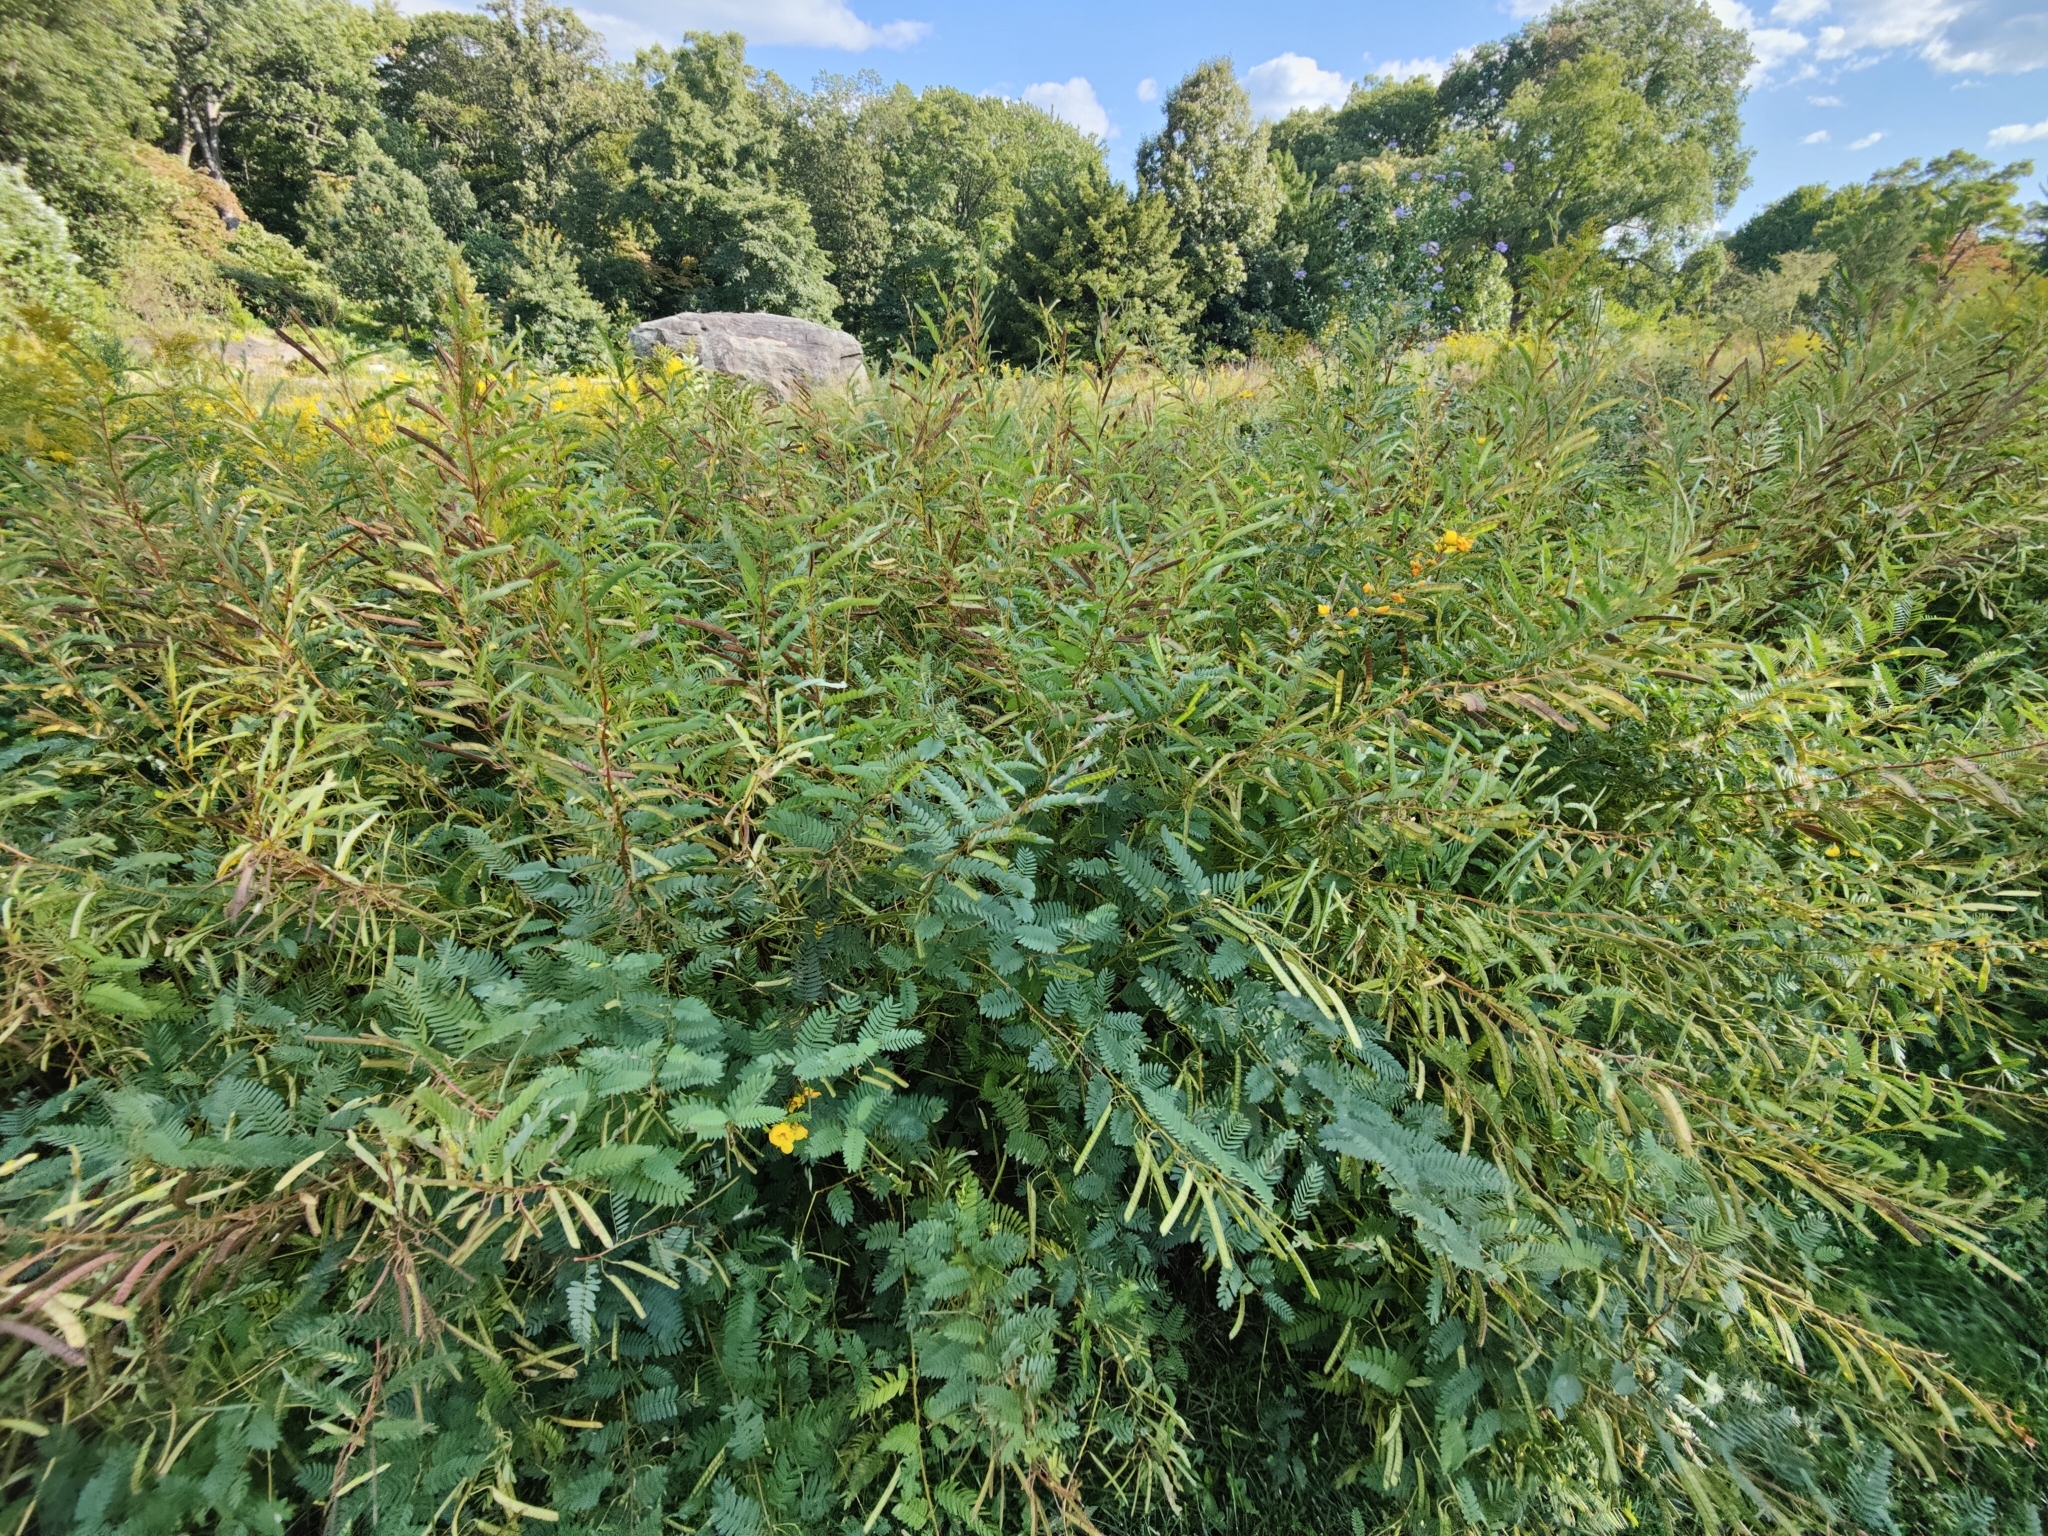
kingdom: Plantae
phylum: Tracheophyta
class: Magnoliopsida
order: Fabales
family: Fabaceae
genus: Chamaecrista
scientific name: Chamaecrista fasciculata
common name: Golden cassia
